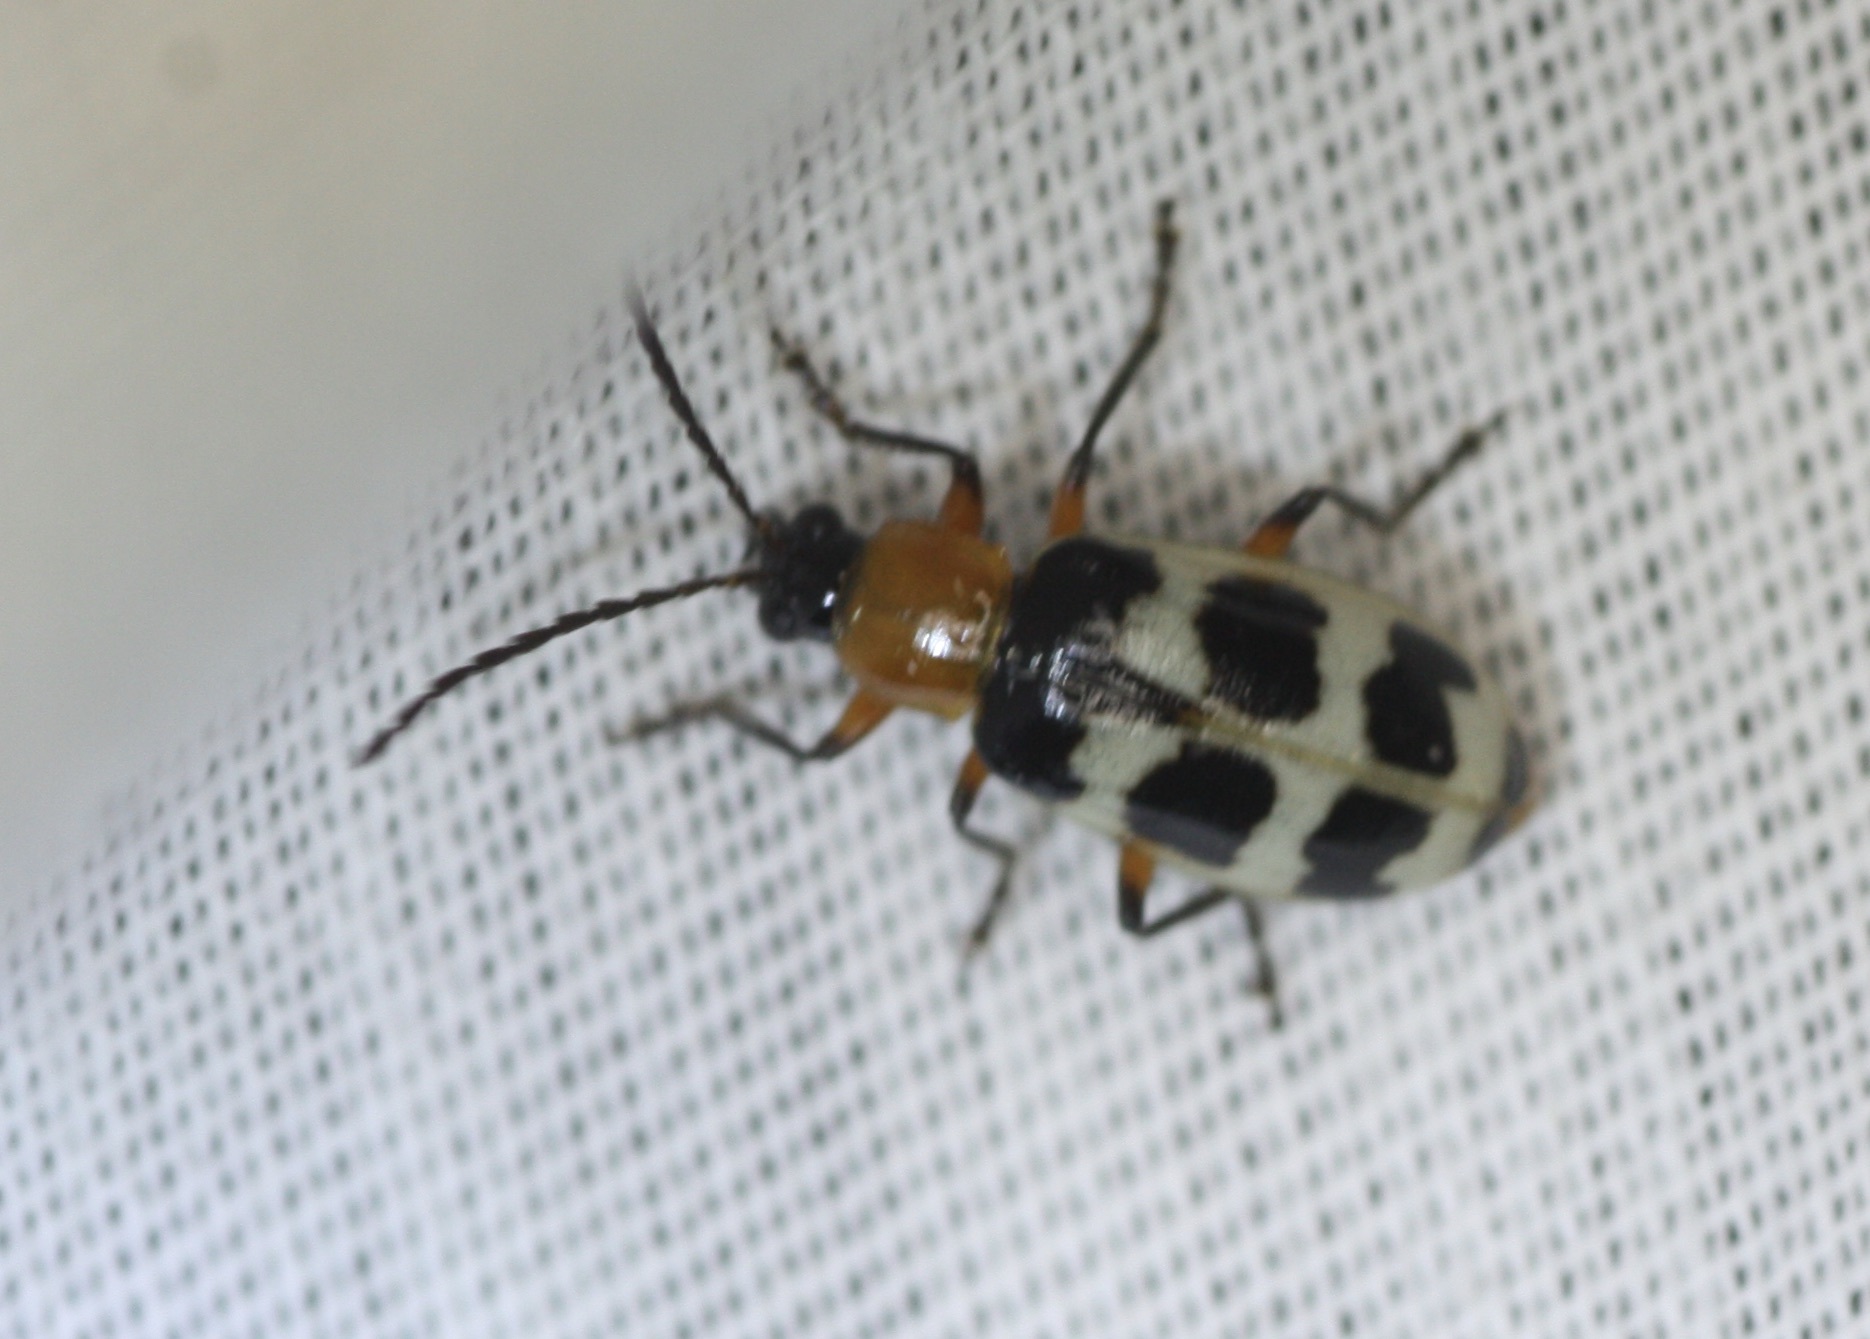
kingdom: Animalia
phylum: Arthropoda
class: Insecta
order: Coleoptera
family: Chrysomelidae
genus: Paranapiacaba
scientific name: Paranapiacaba tricincta
